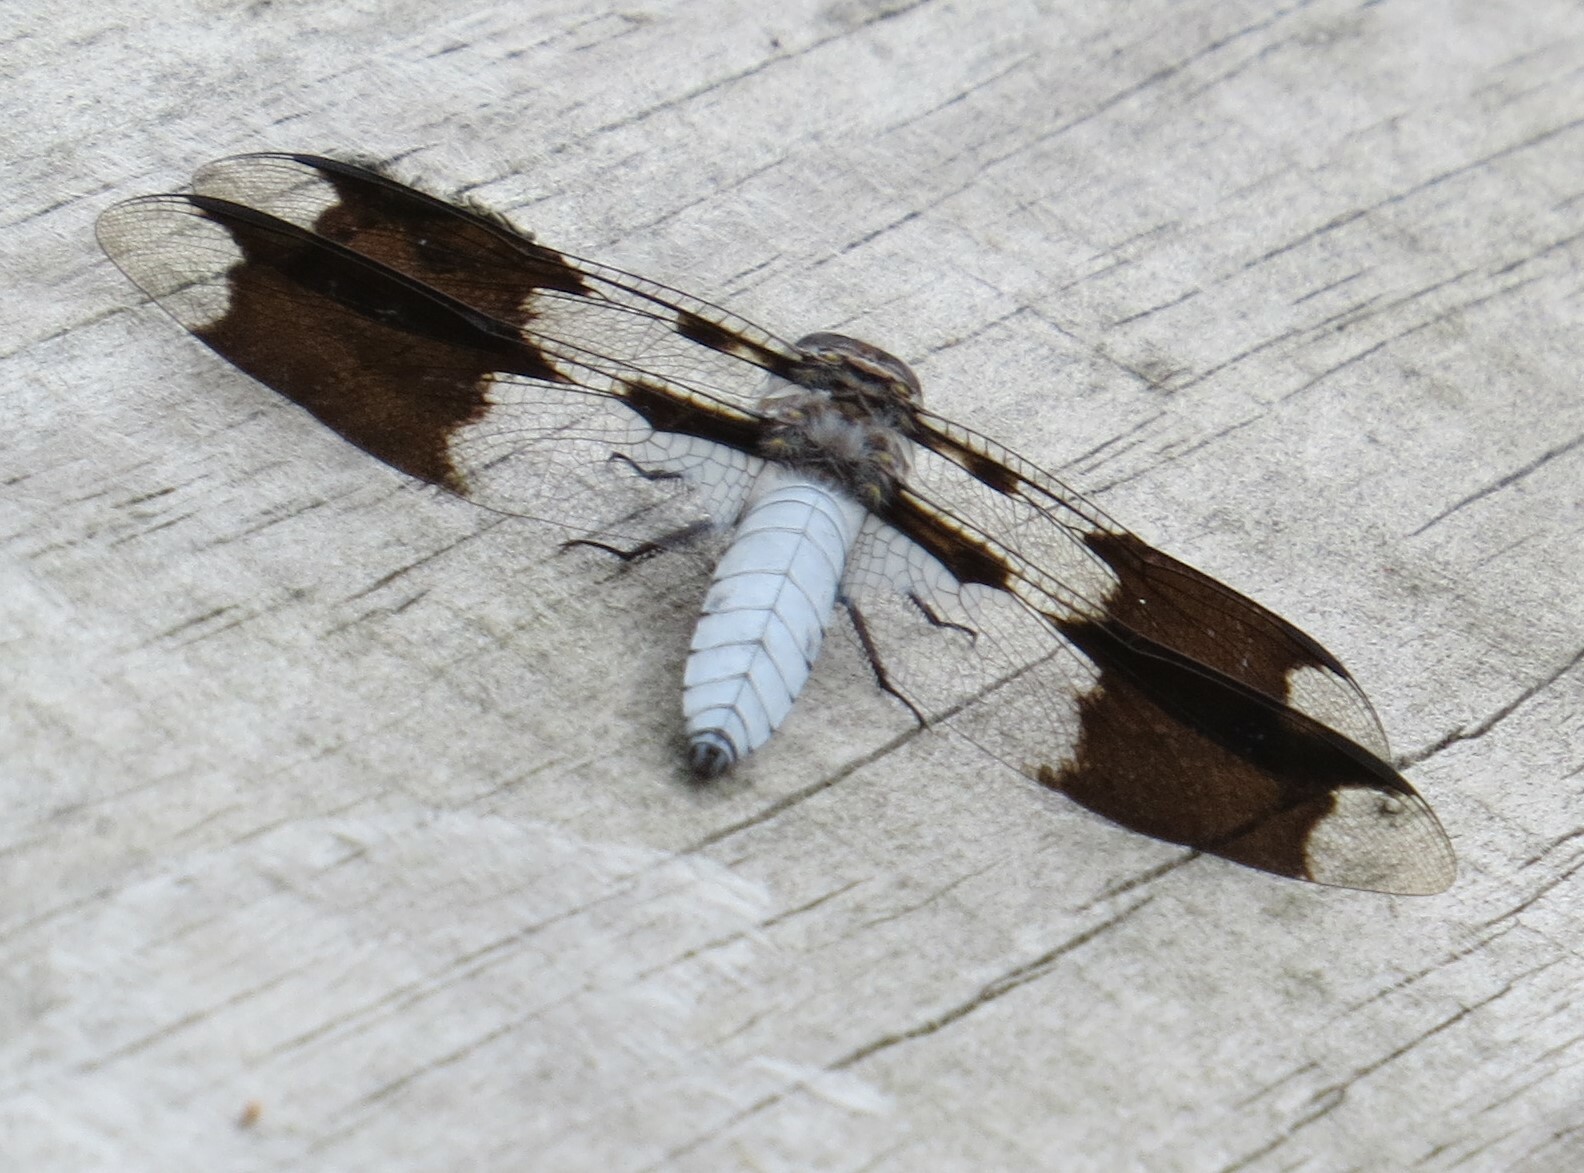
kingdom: Animalia
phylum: Arthropoda
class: Insecta
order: Odonata
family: Libellulidae
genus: Plathemis
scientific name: Plathemis lydia
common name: Common whitetail
